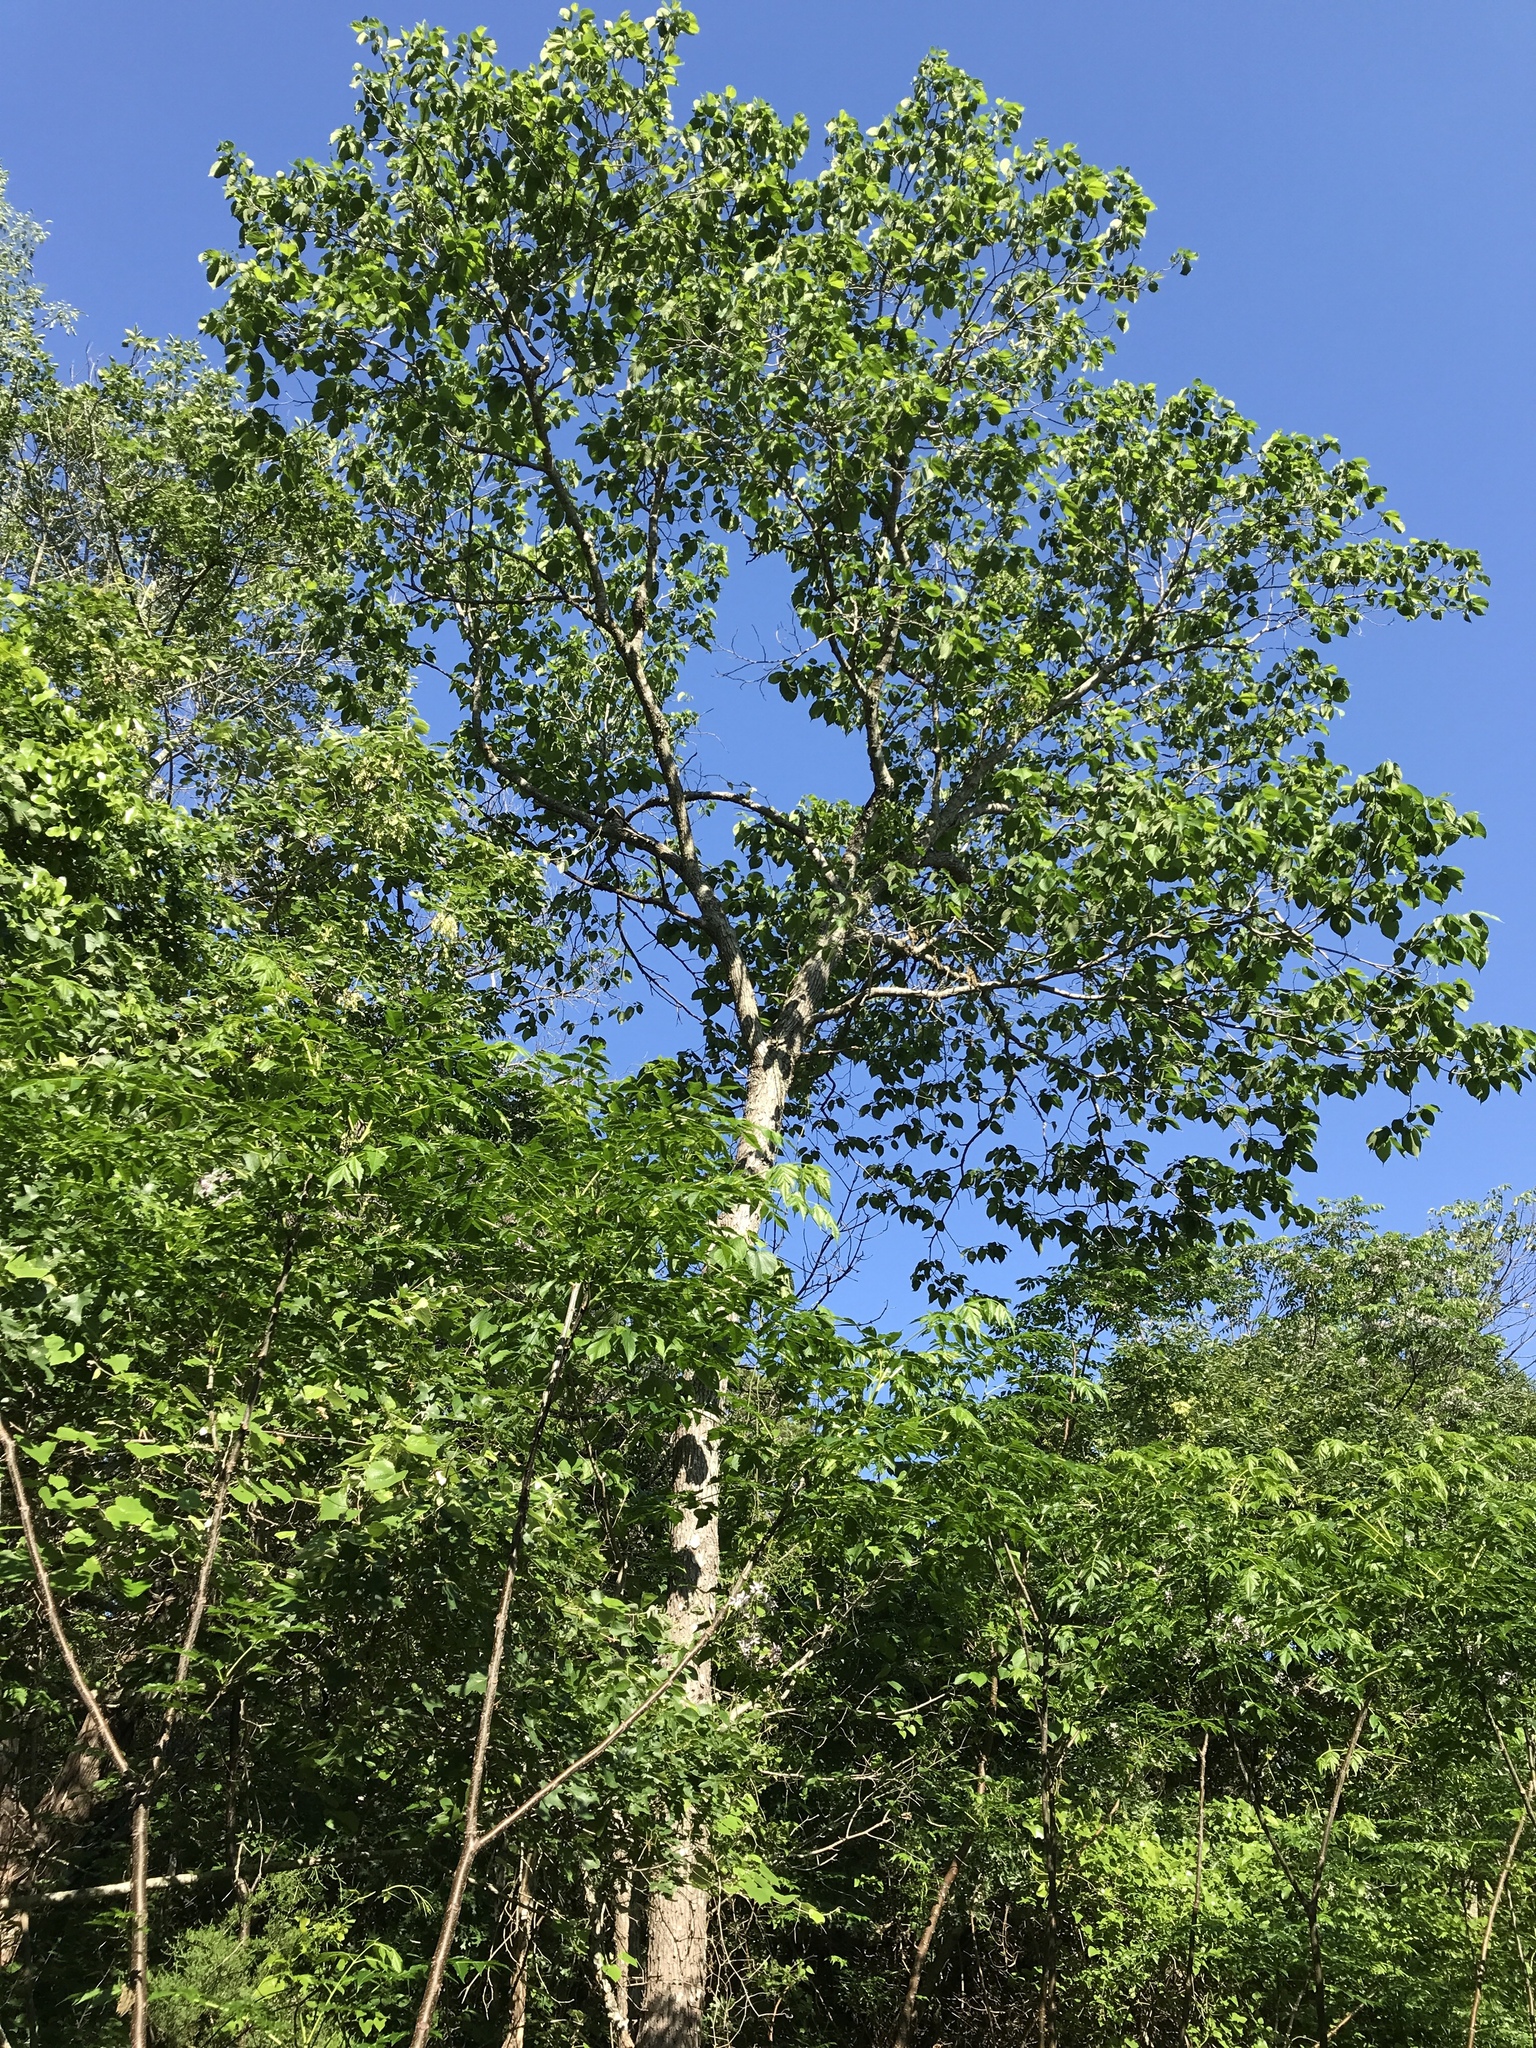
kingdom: Plantae
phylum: Tracheophyta
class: Magnoliopsida
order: Rosales
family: Moraceae
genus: Morus
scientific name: Morus rubra
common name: Red mulberry
